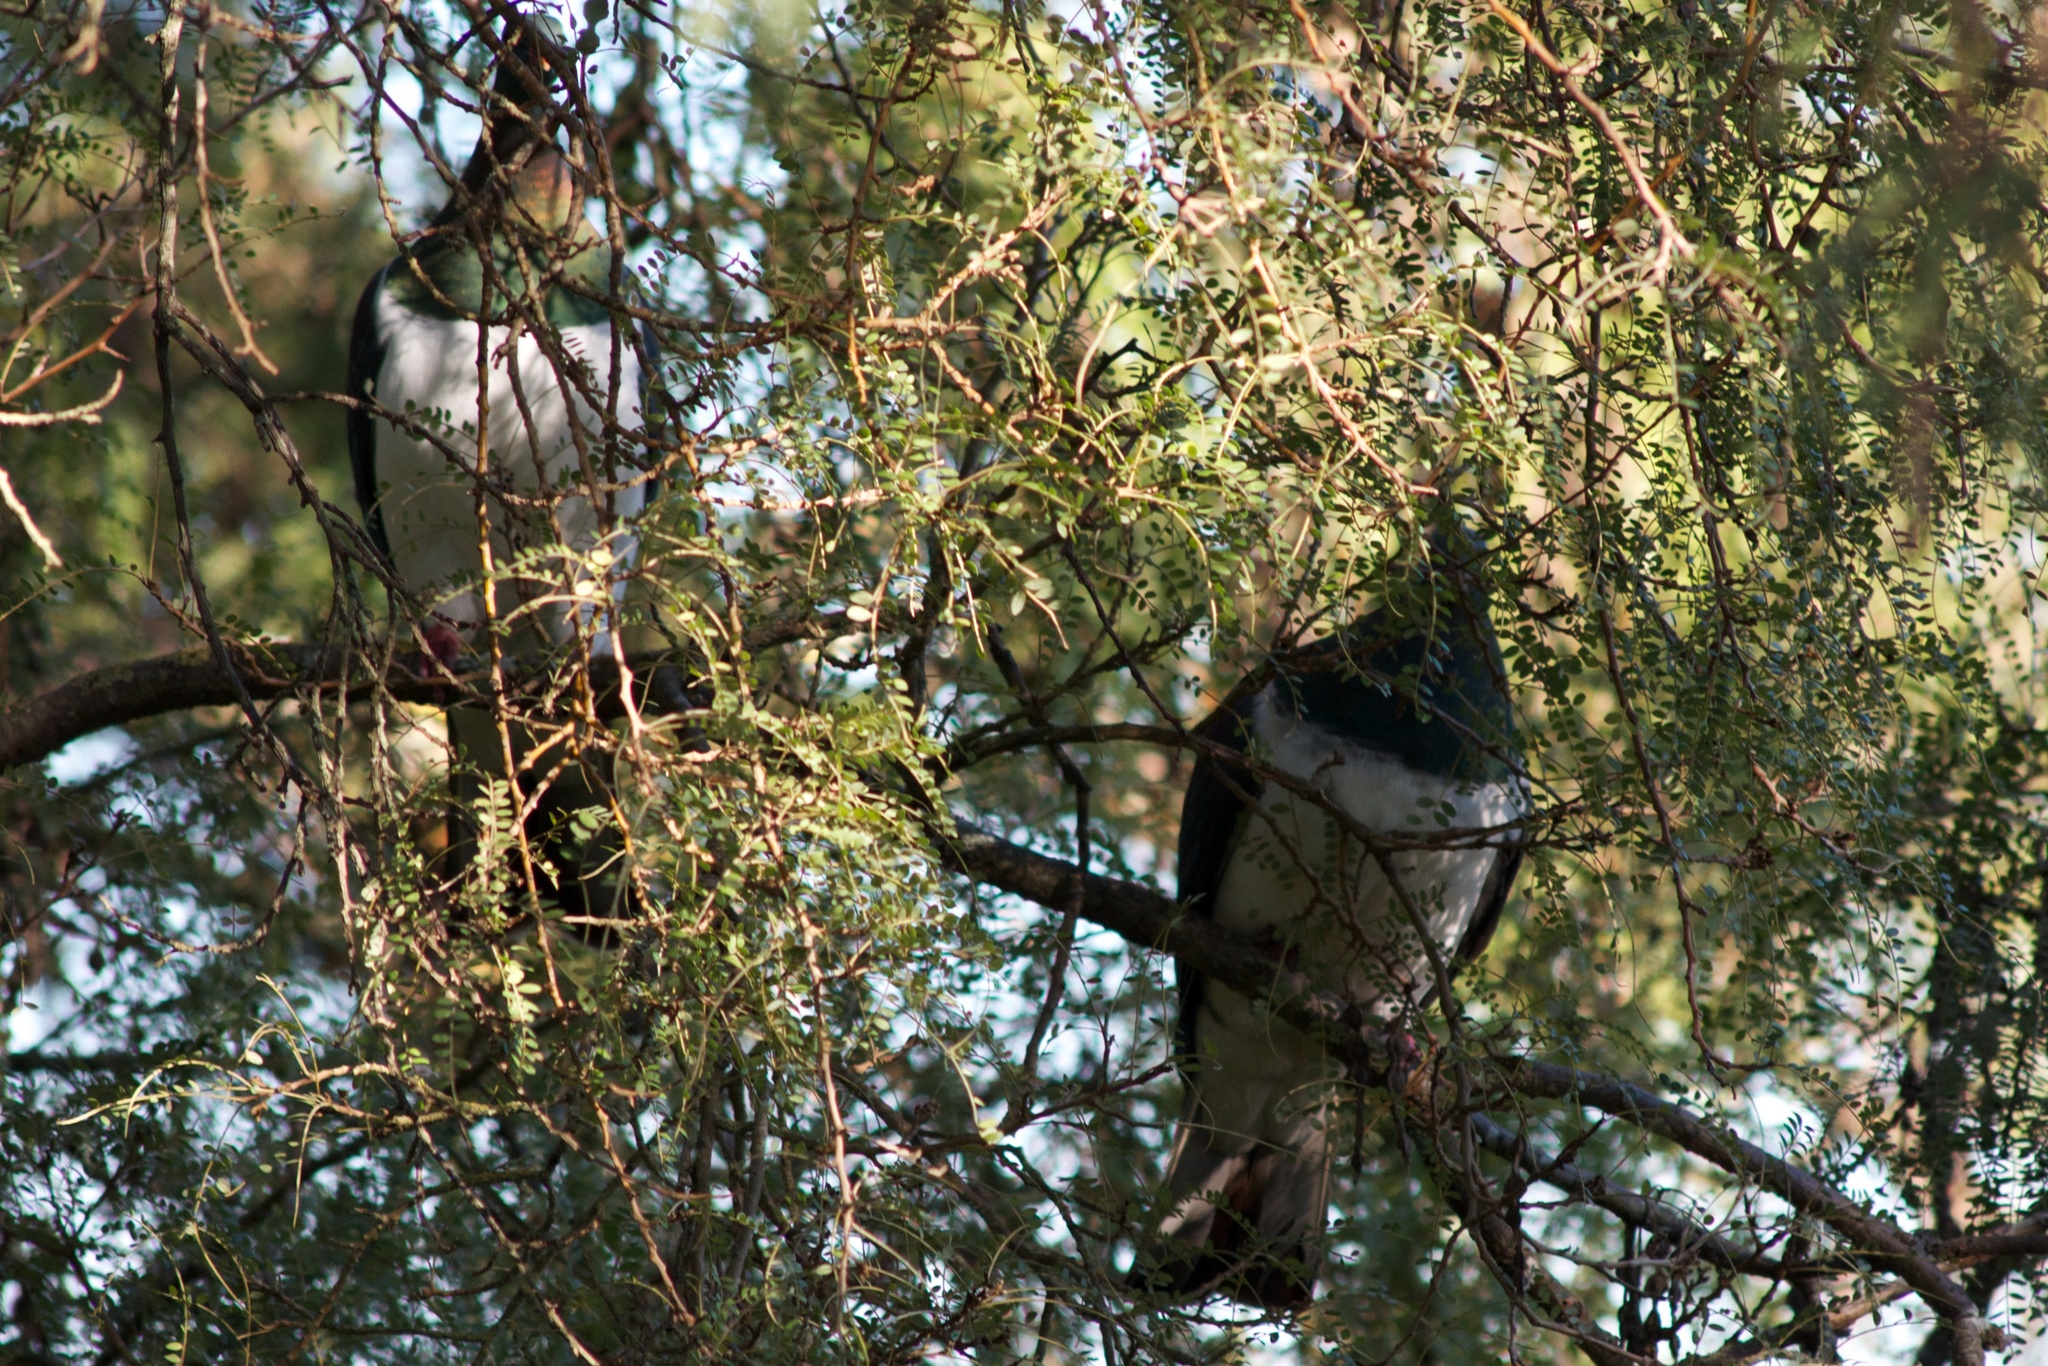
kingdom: Animalia
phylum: Chordata
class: Aves
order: Columbiformes
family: Columbidae
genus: Hemiphaga
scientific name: Hemiphaga novaeseelandiae
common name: New zealand pigeon
